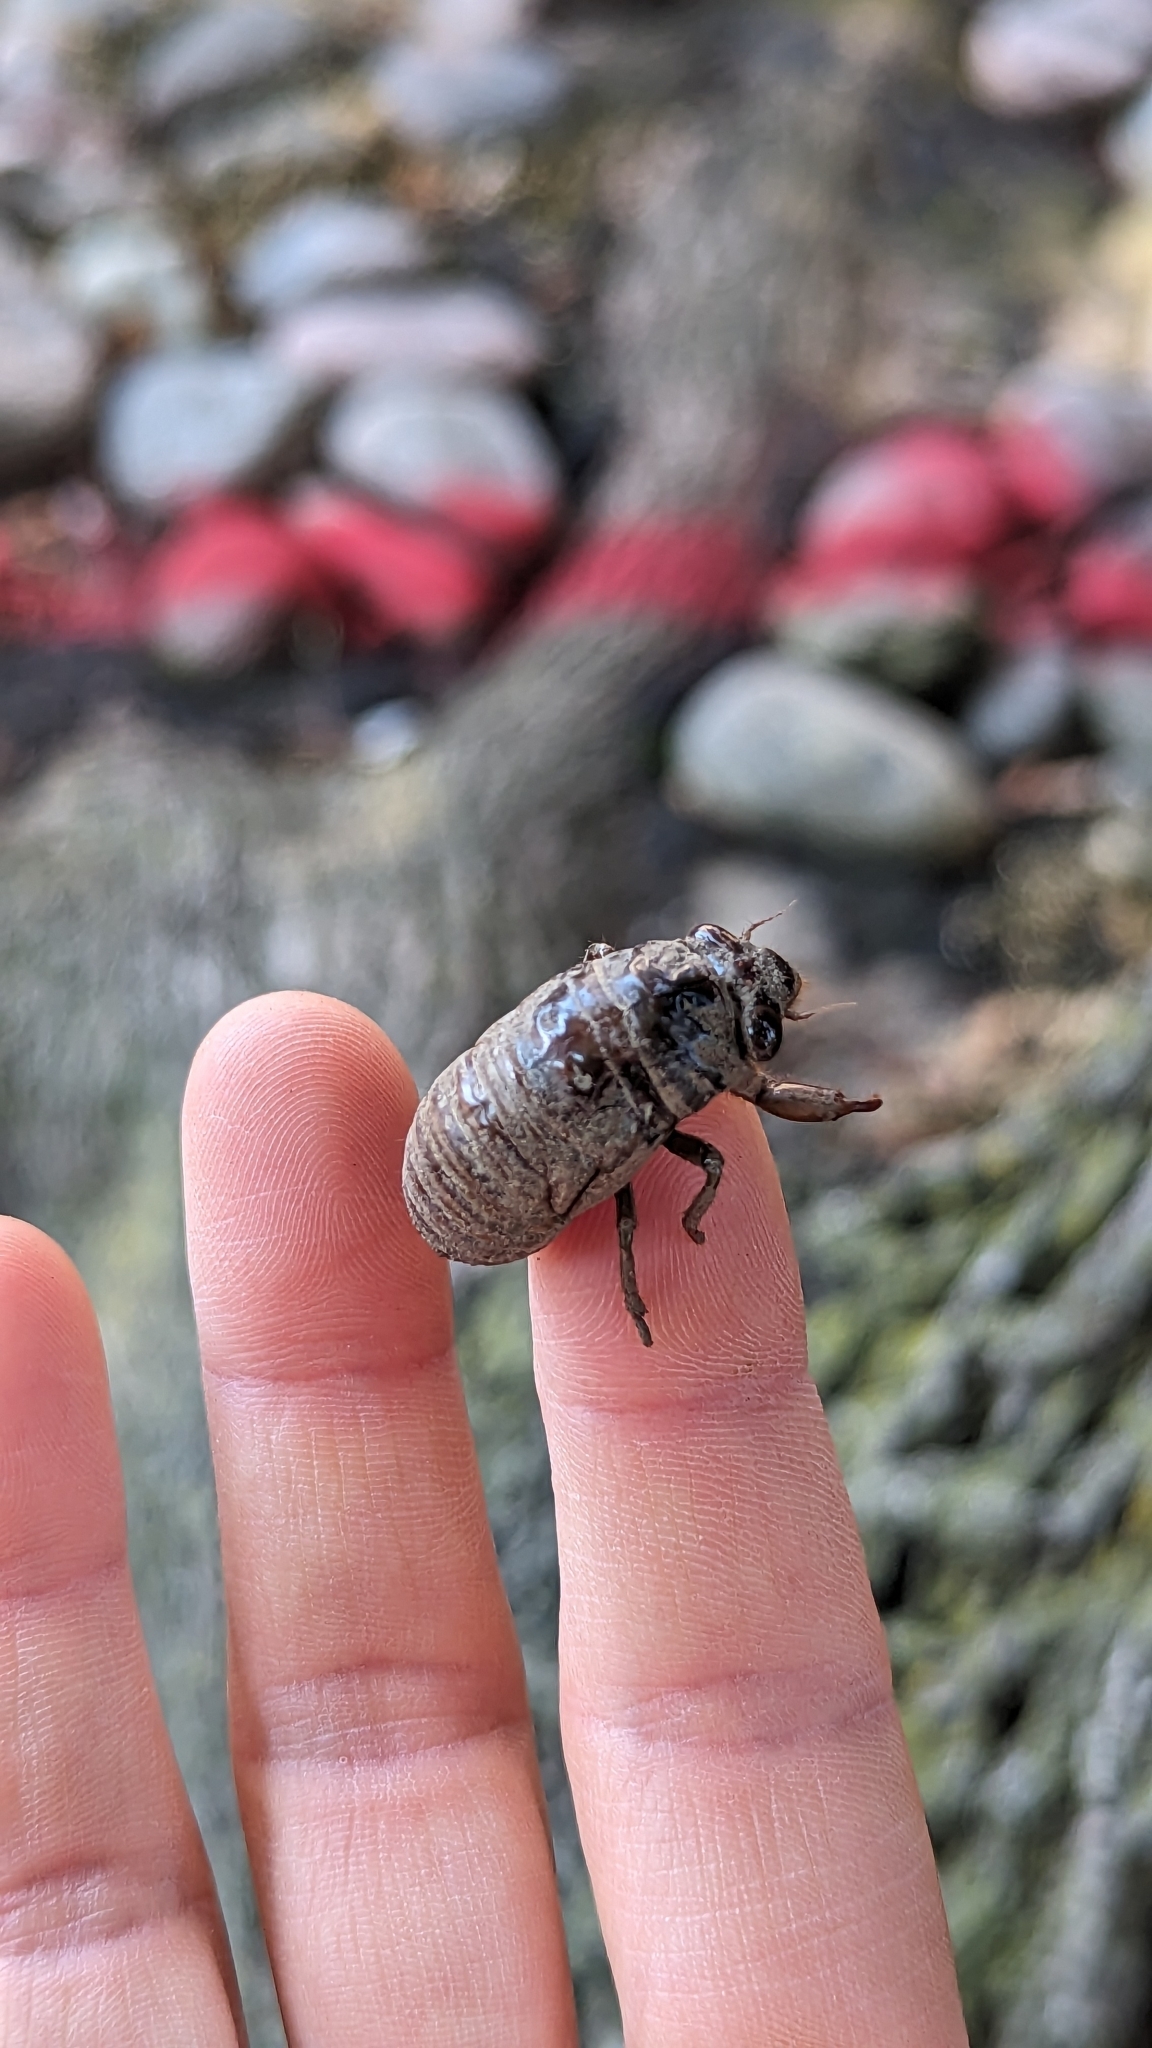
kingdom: Animalia
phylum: Arthropoda
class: Insecta
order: Hemiptera
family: Cicadidae
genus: Neotibicen
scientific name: Neotibicen canicularis
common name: God-day cicada
